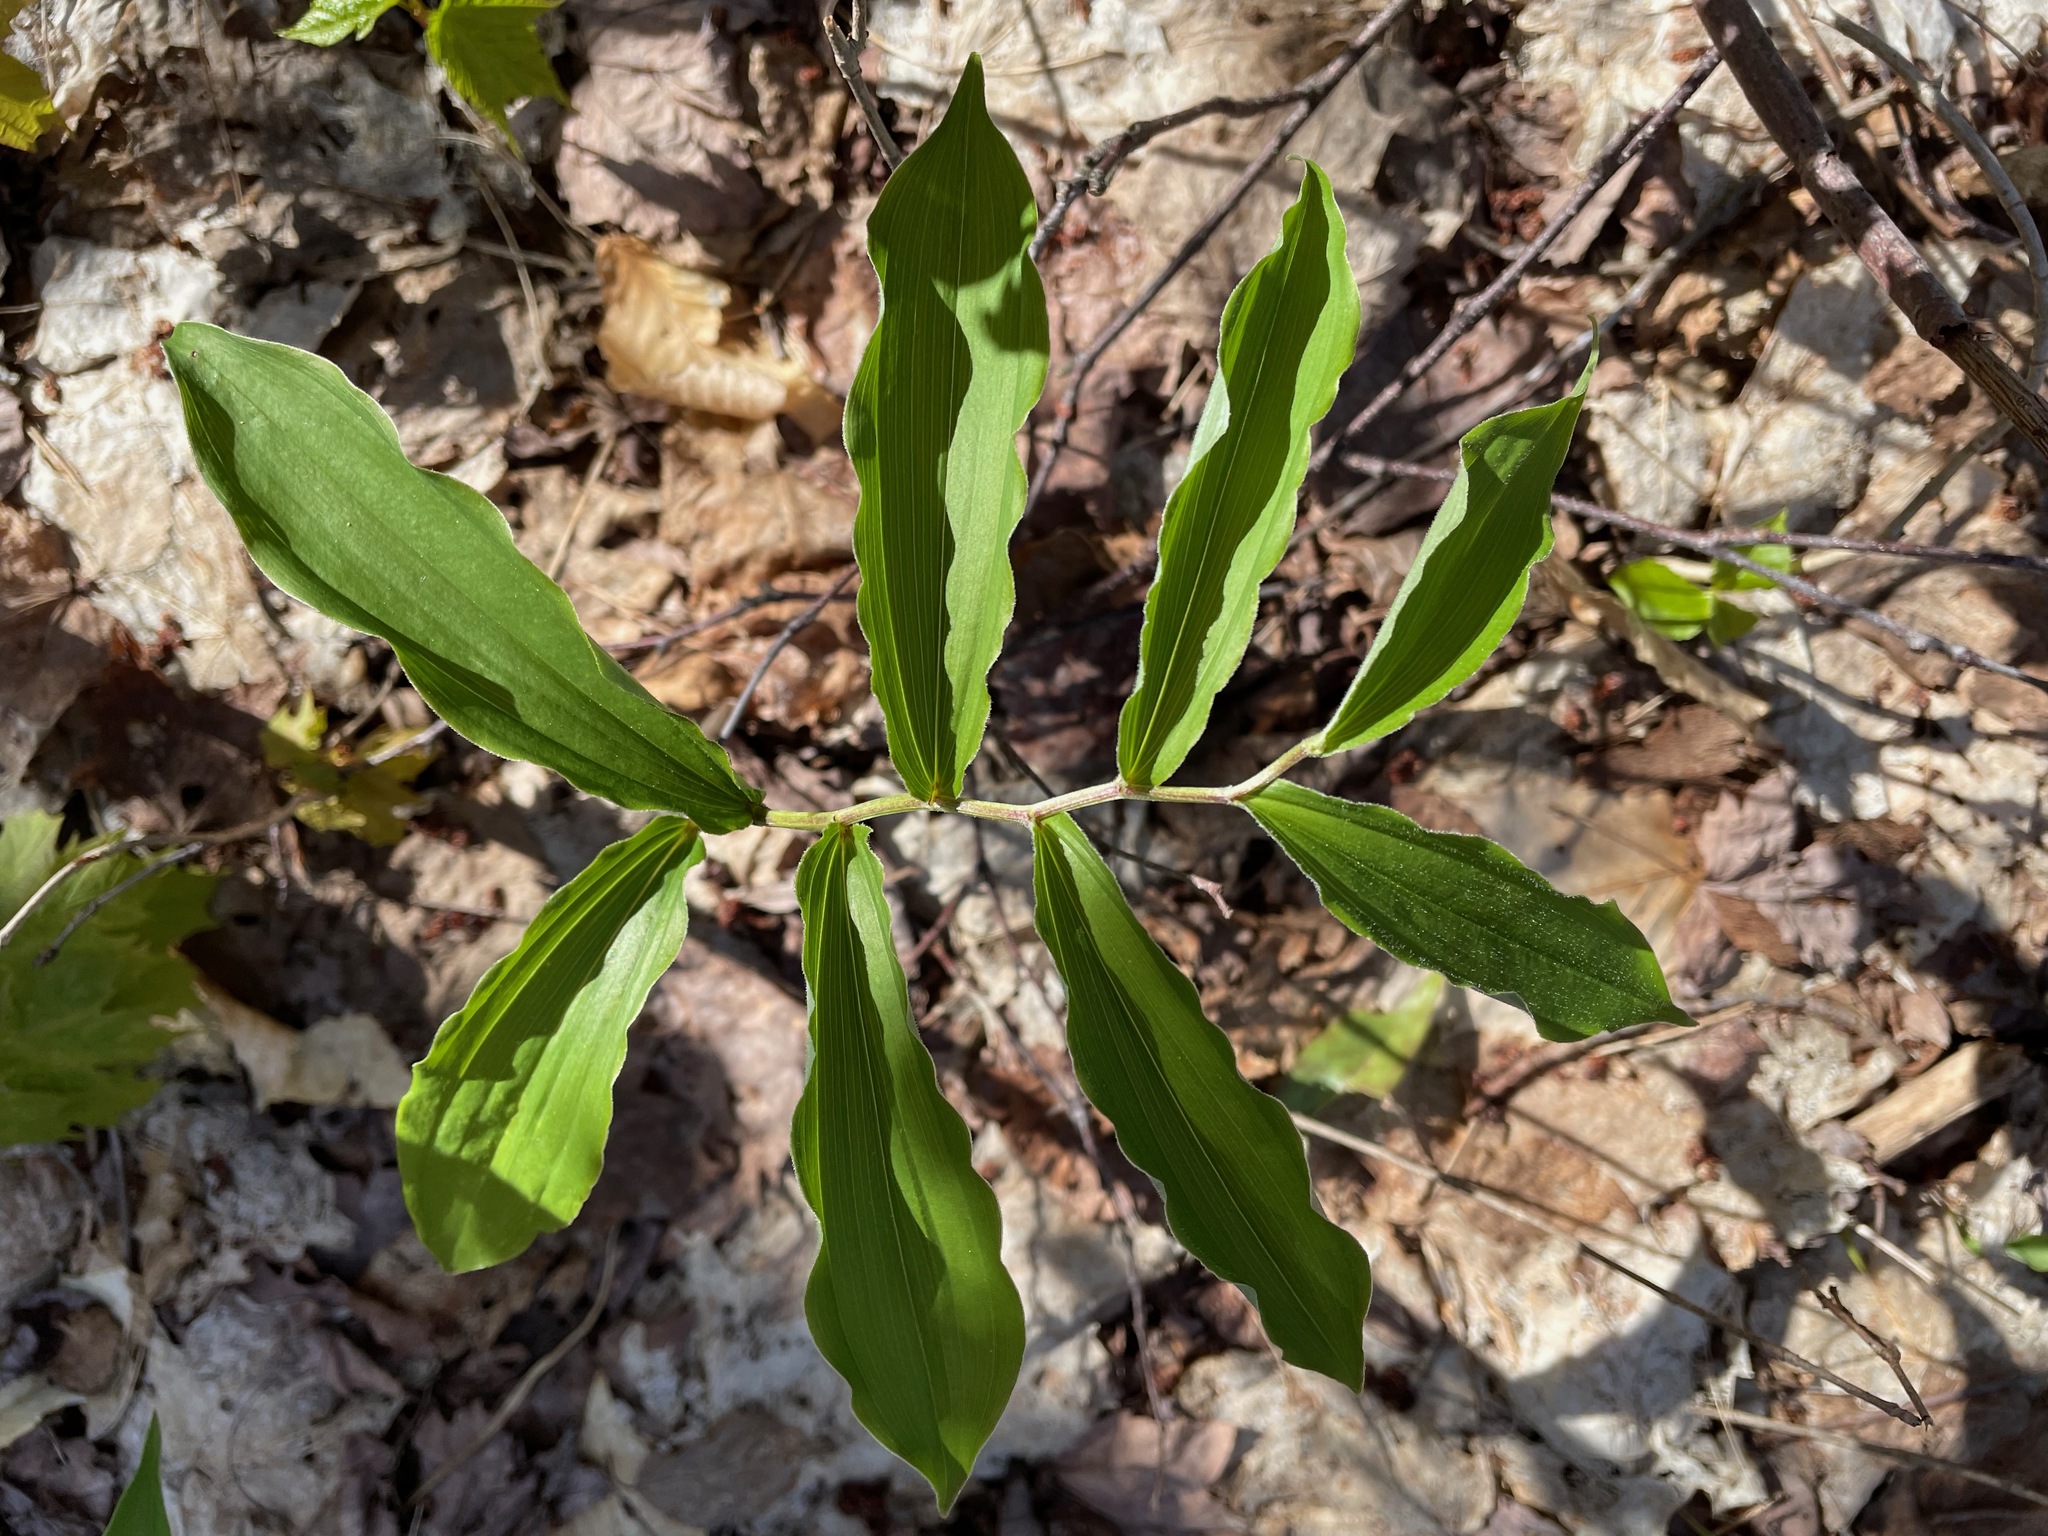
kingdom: Plantae
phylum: Tracheophyta
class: Liliopsida
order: Asparagales
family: Asparagaceae
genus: Maianthemum
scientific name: Maianthemum racemosum
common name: False spikenard
